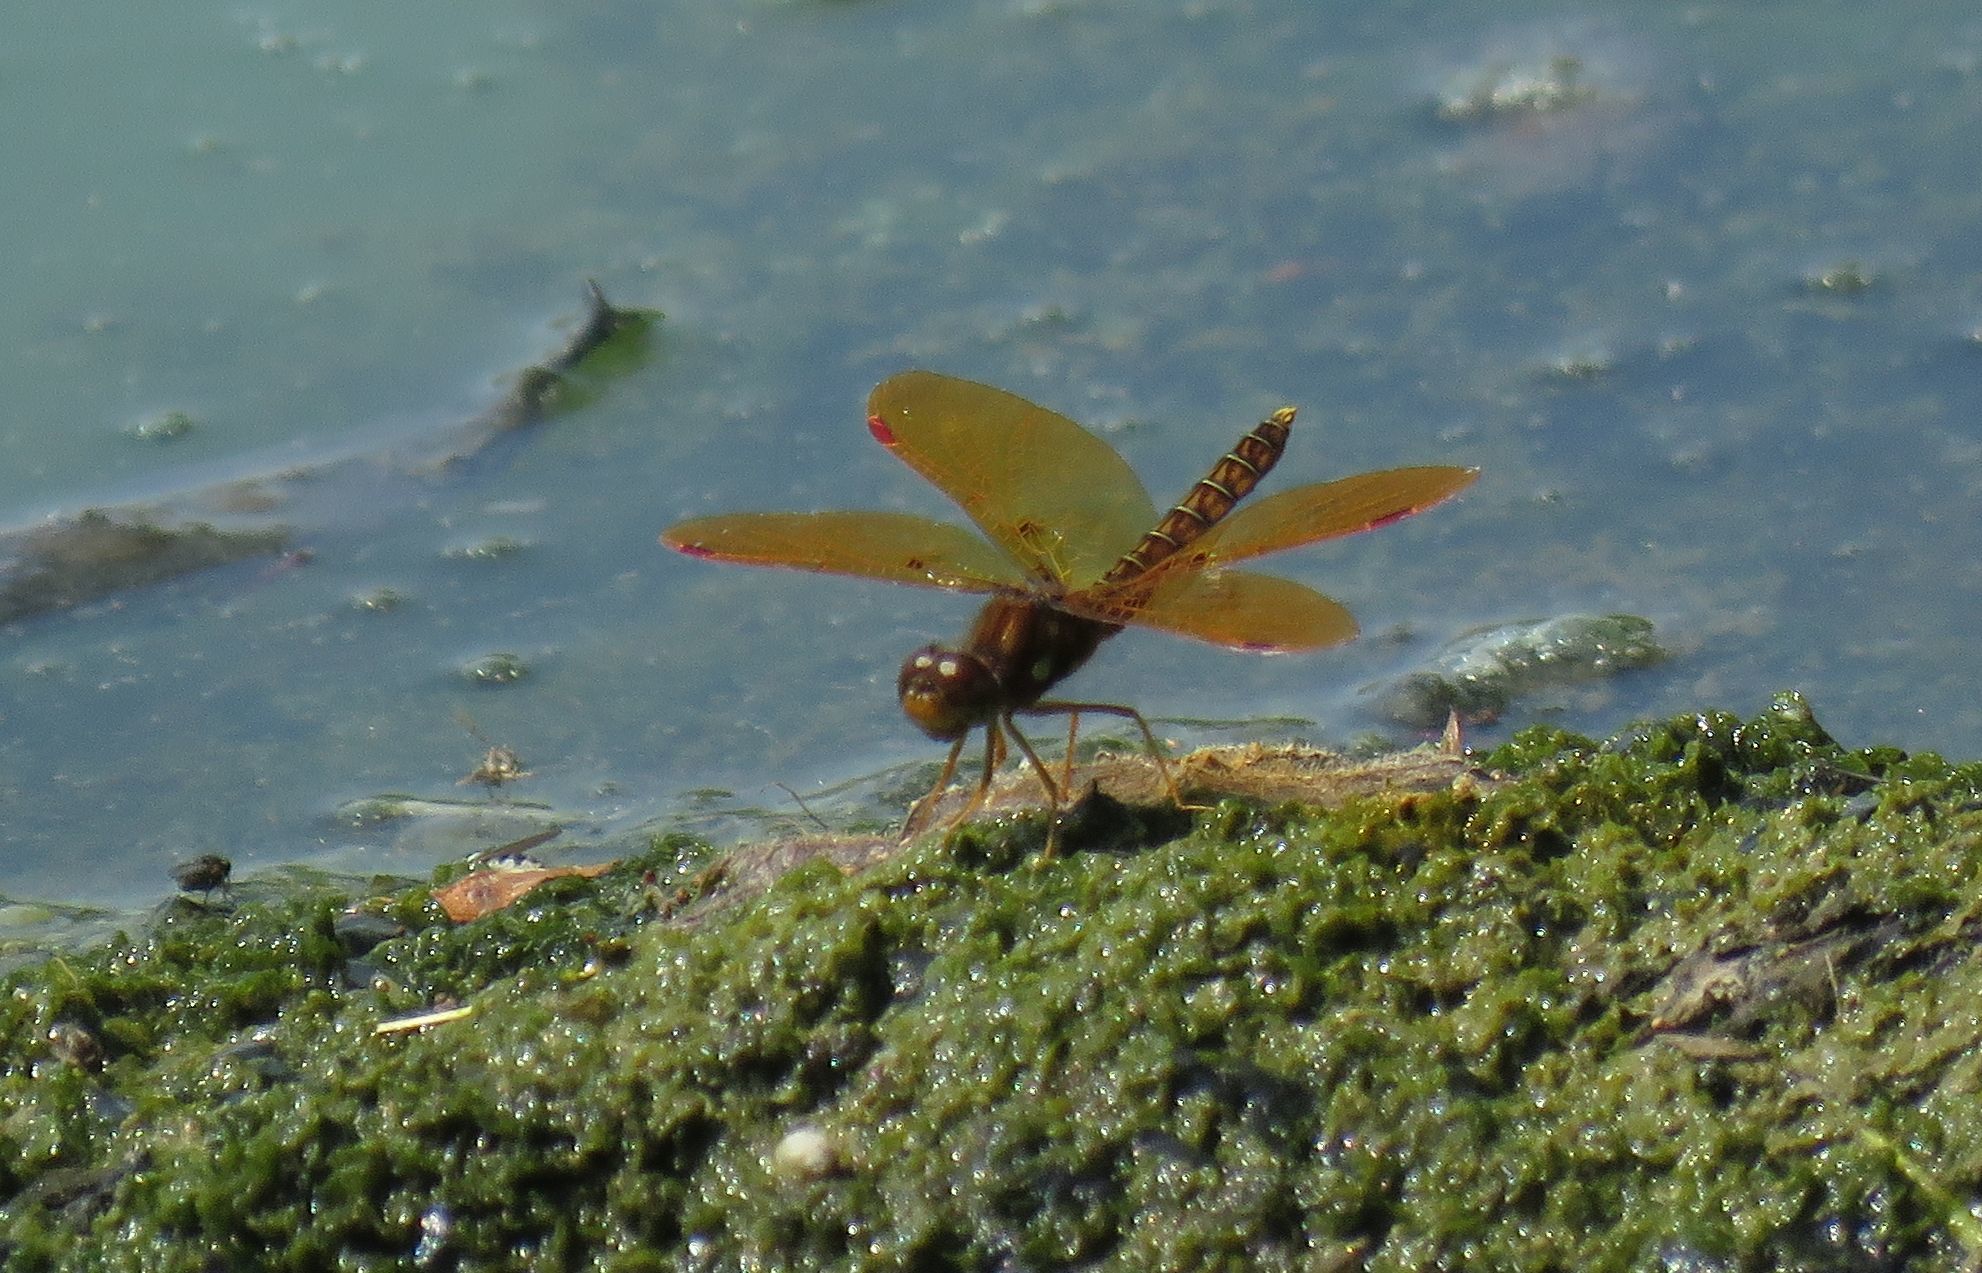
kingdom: Animalia
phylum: Arthropoda
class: Insecta
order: Odonata
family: Libellulidae
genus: Perithemis
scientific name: Perithemis tenera
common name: Eastern amberwing
